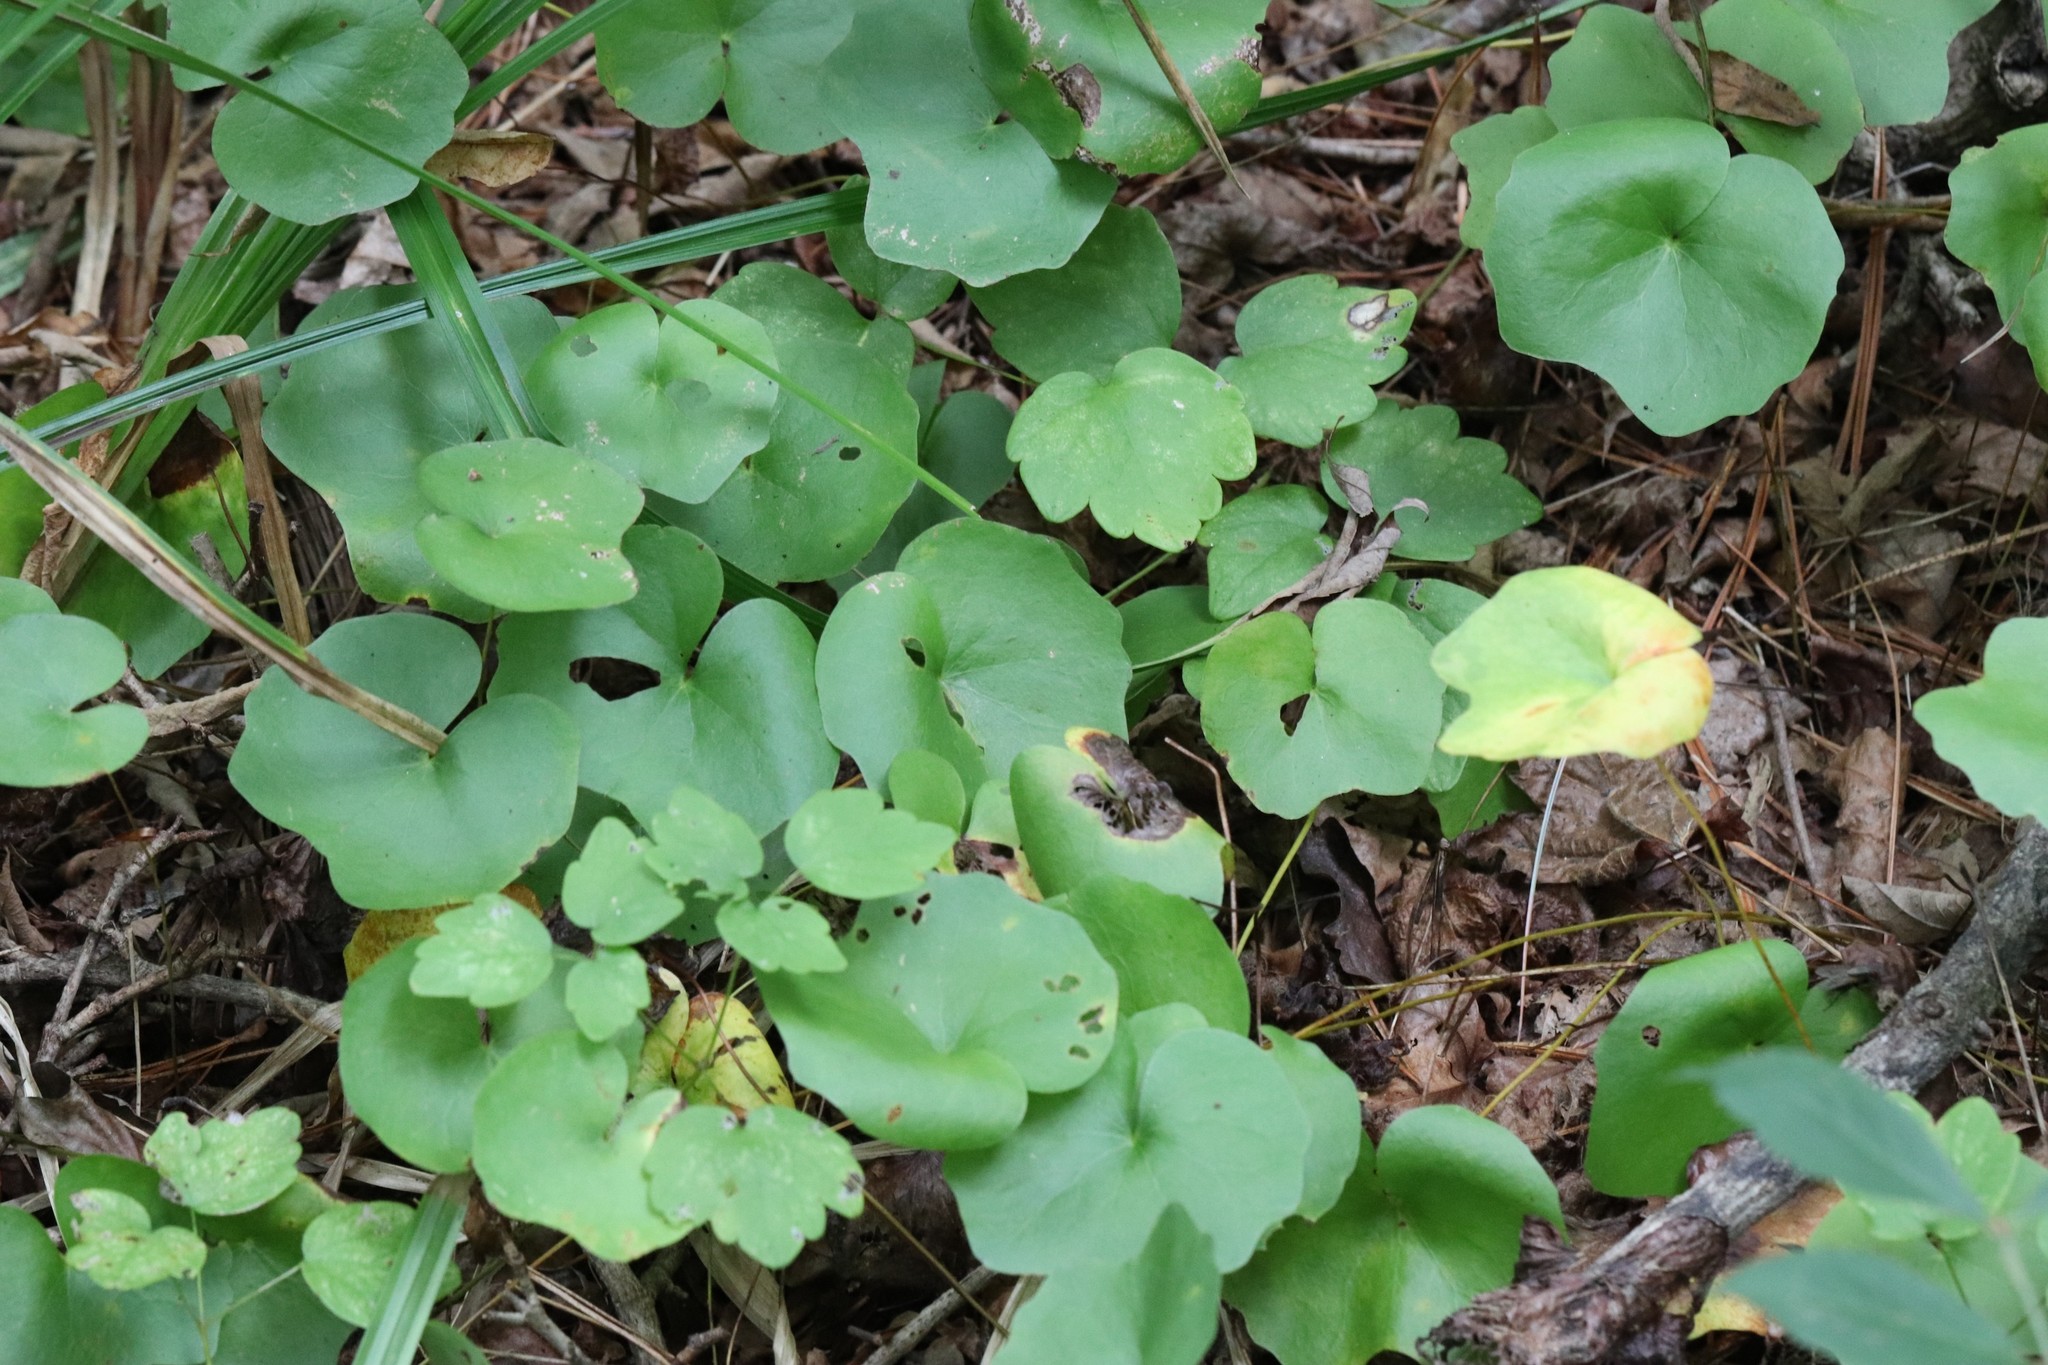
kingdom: Plantae
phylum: Tracheophyta
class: Magnoliopsida
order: Ranunculales
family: Berberidaceae
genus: Plagiorhegma
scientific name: Plagiorhegma dubium
